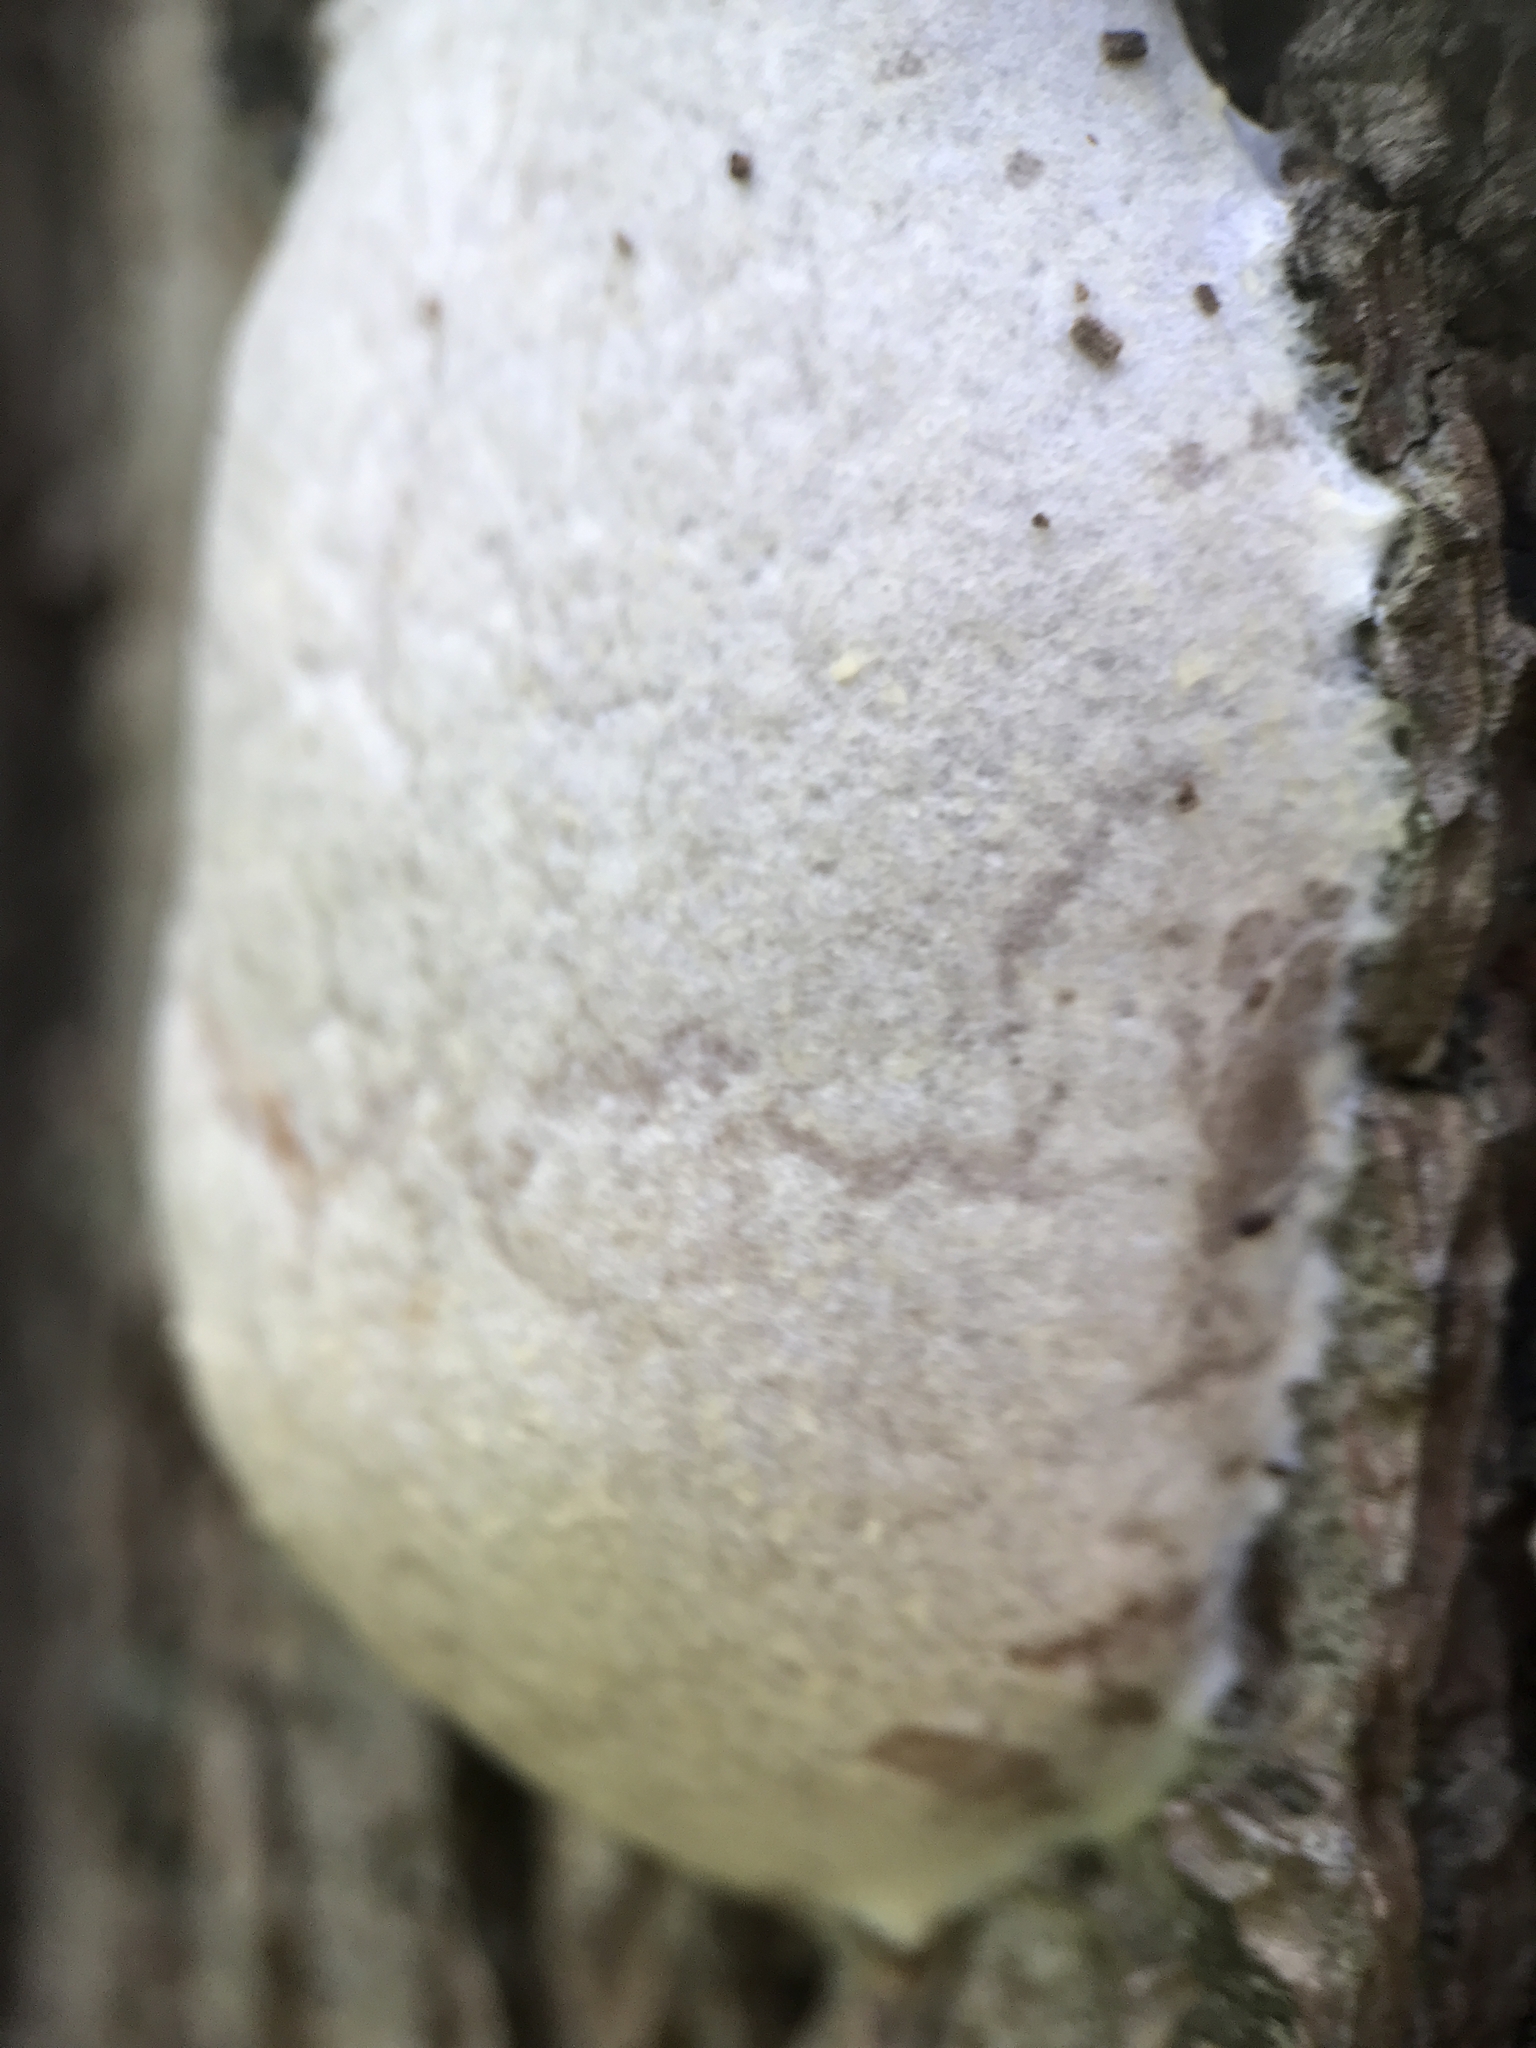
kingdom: Protozoa
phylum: Mycetozoa
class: Myxomycetes
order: Cribrariales
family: Tubiferaceae
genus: Reticularia
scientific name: Reticularia lycoperdon
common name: False puffball
